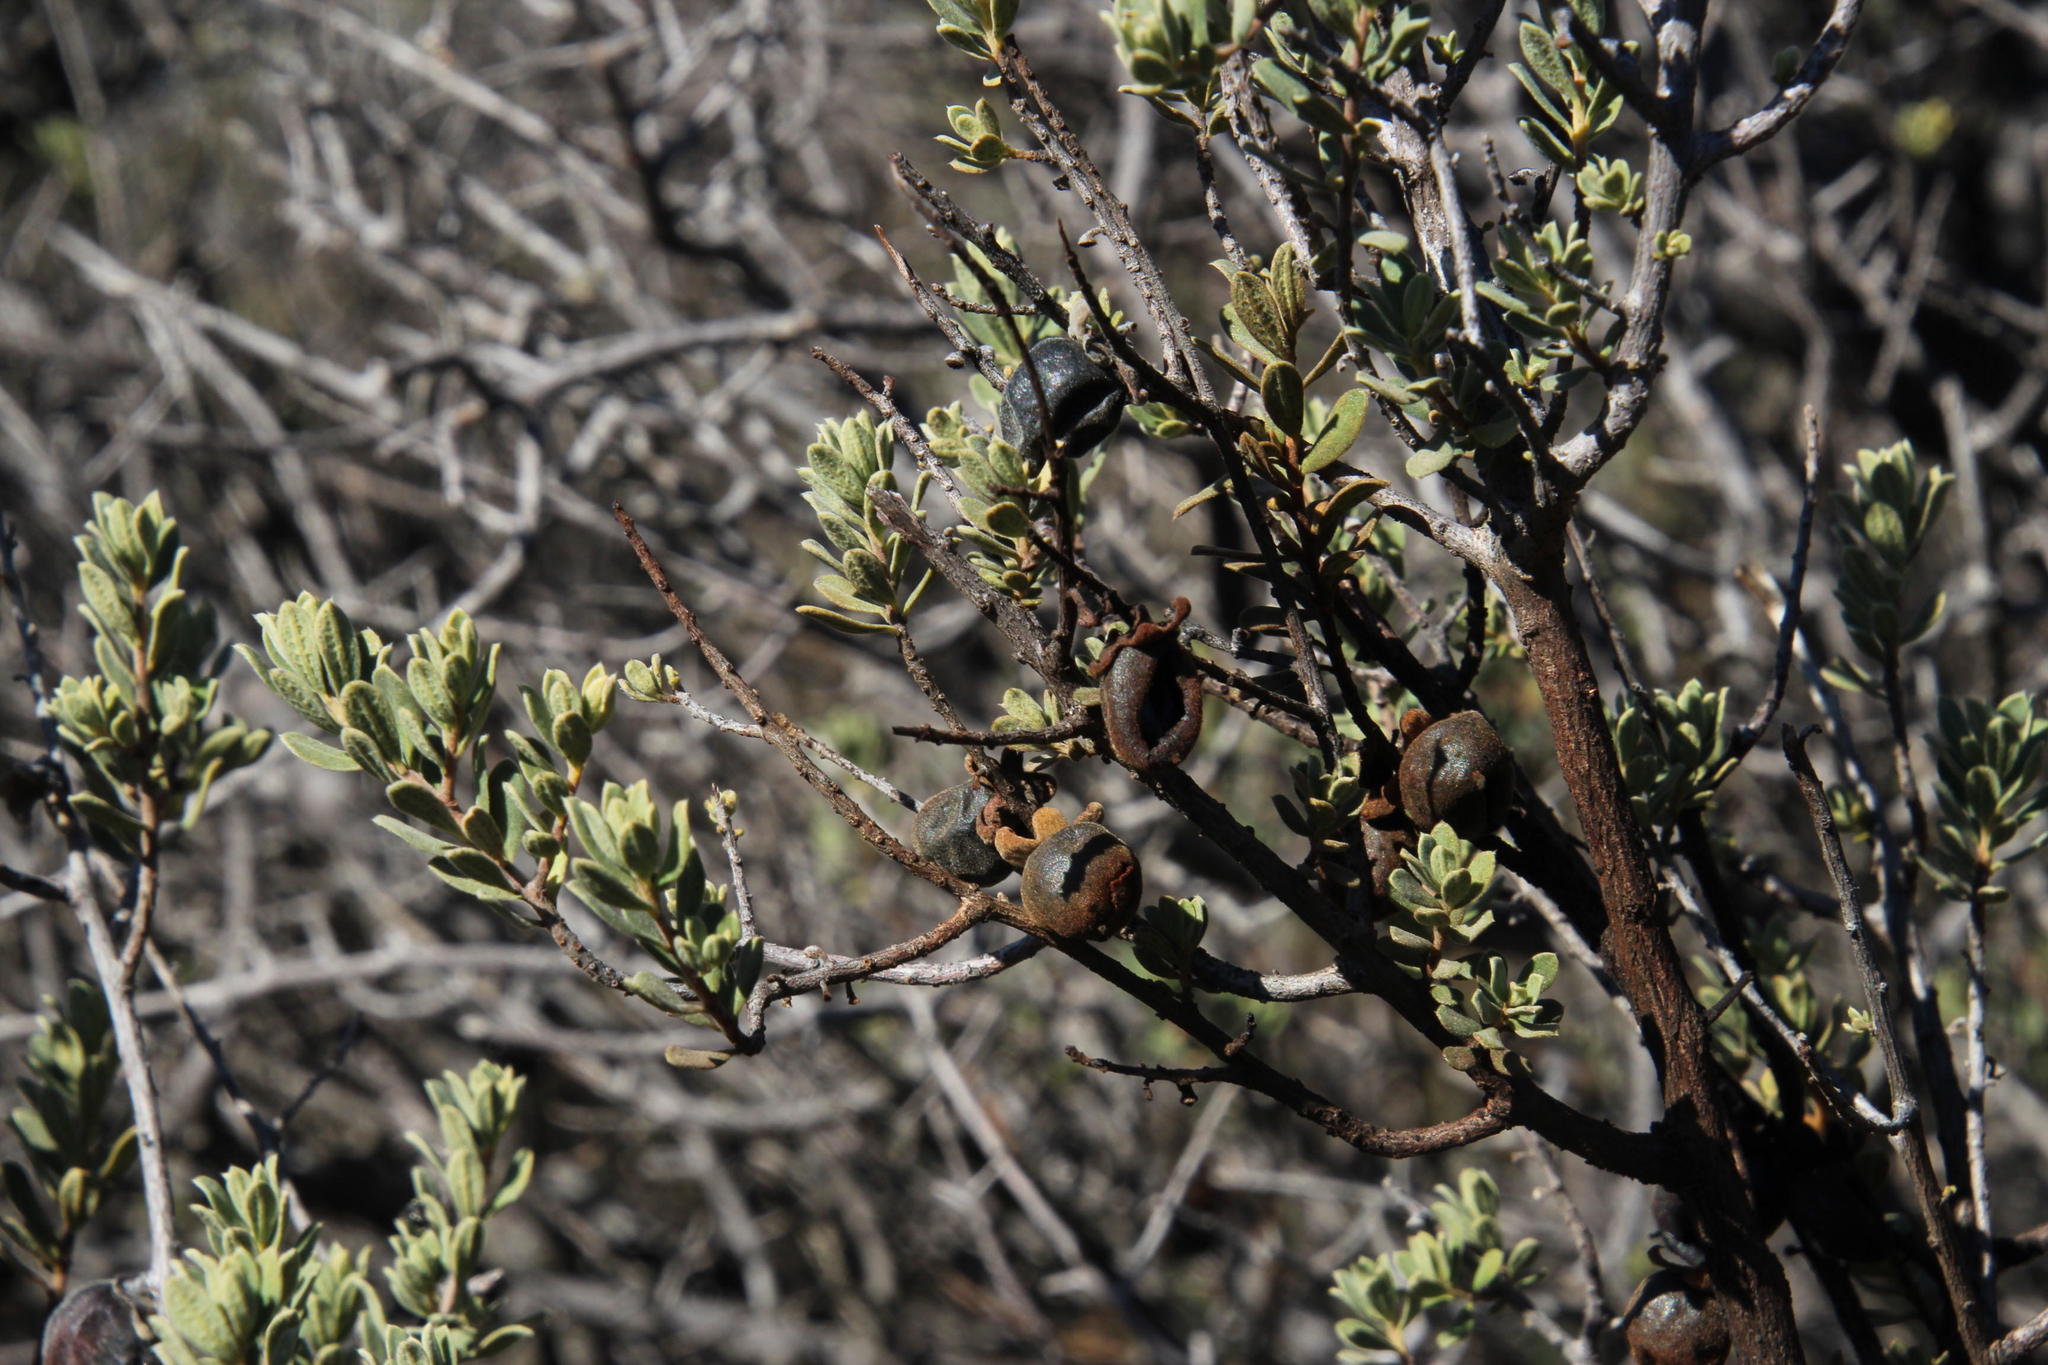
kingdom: Plantae
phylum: Tracheophyta
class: Magnoliopsida
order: Ericales
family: Ebenaceae
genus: Diospyros
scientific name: Diospyros pubescens
